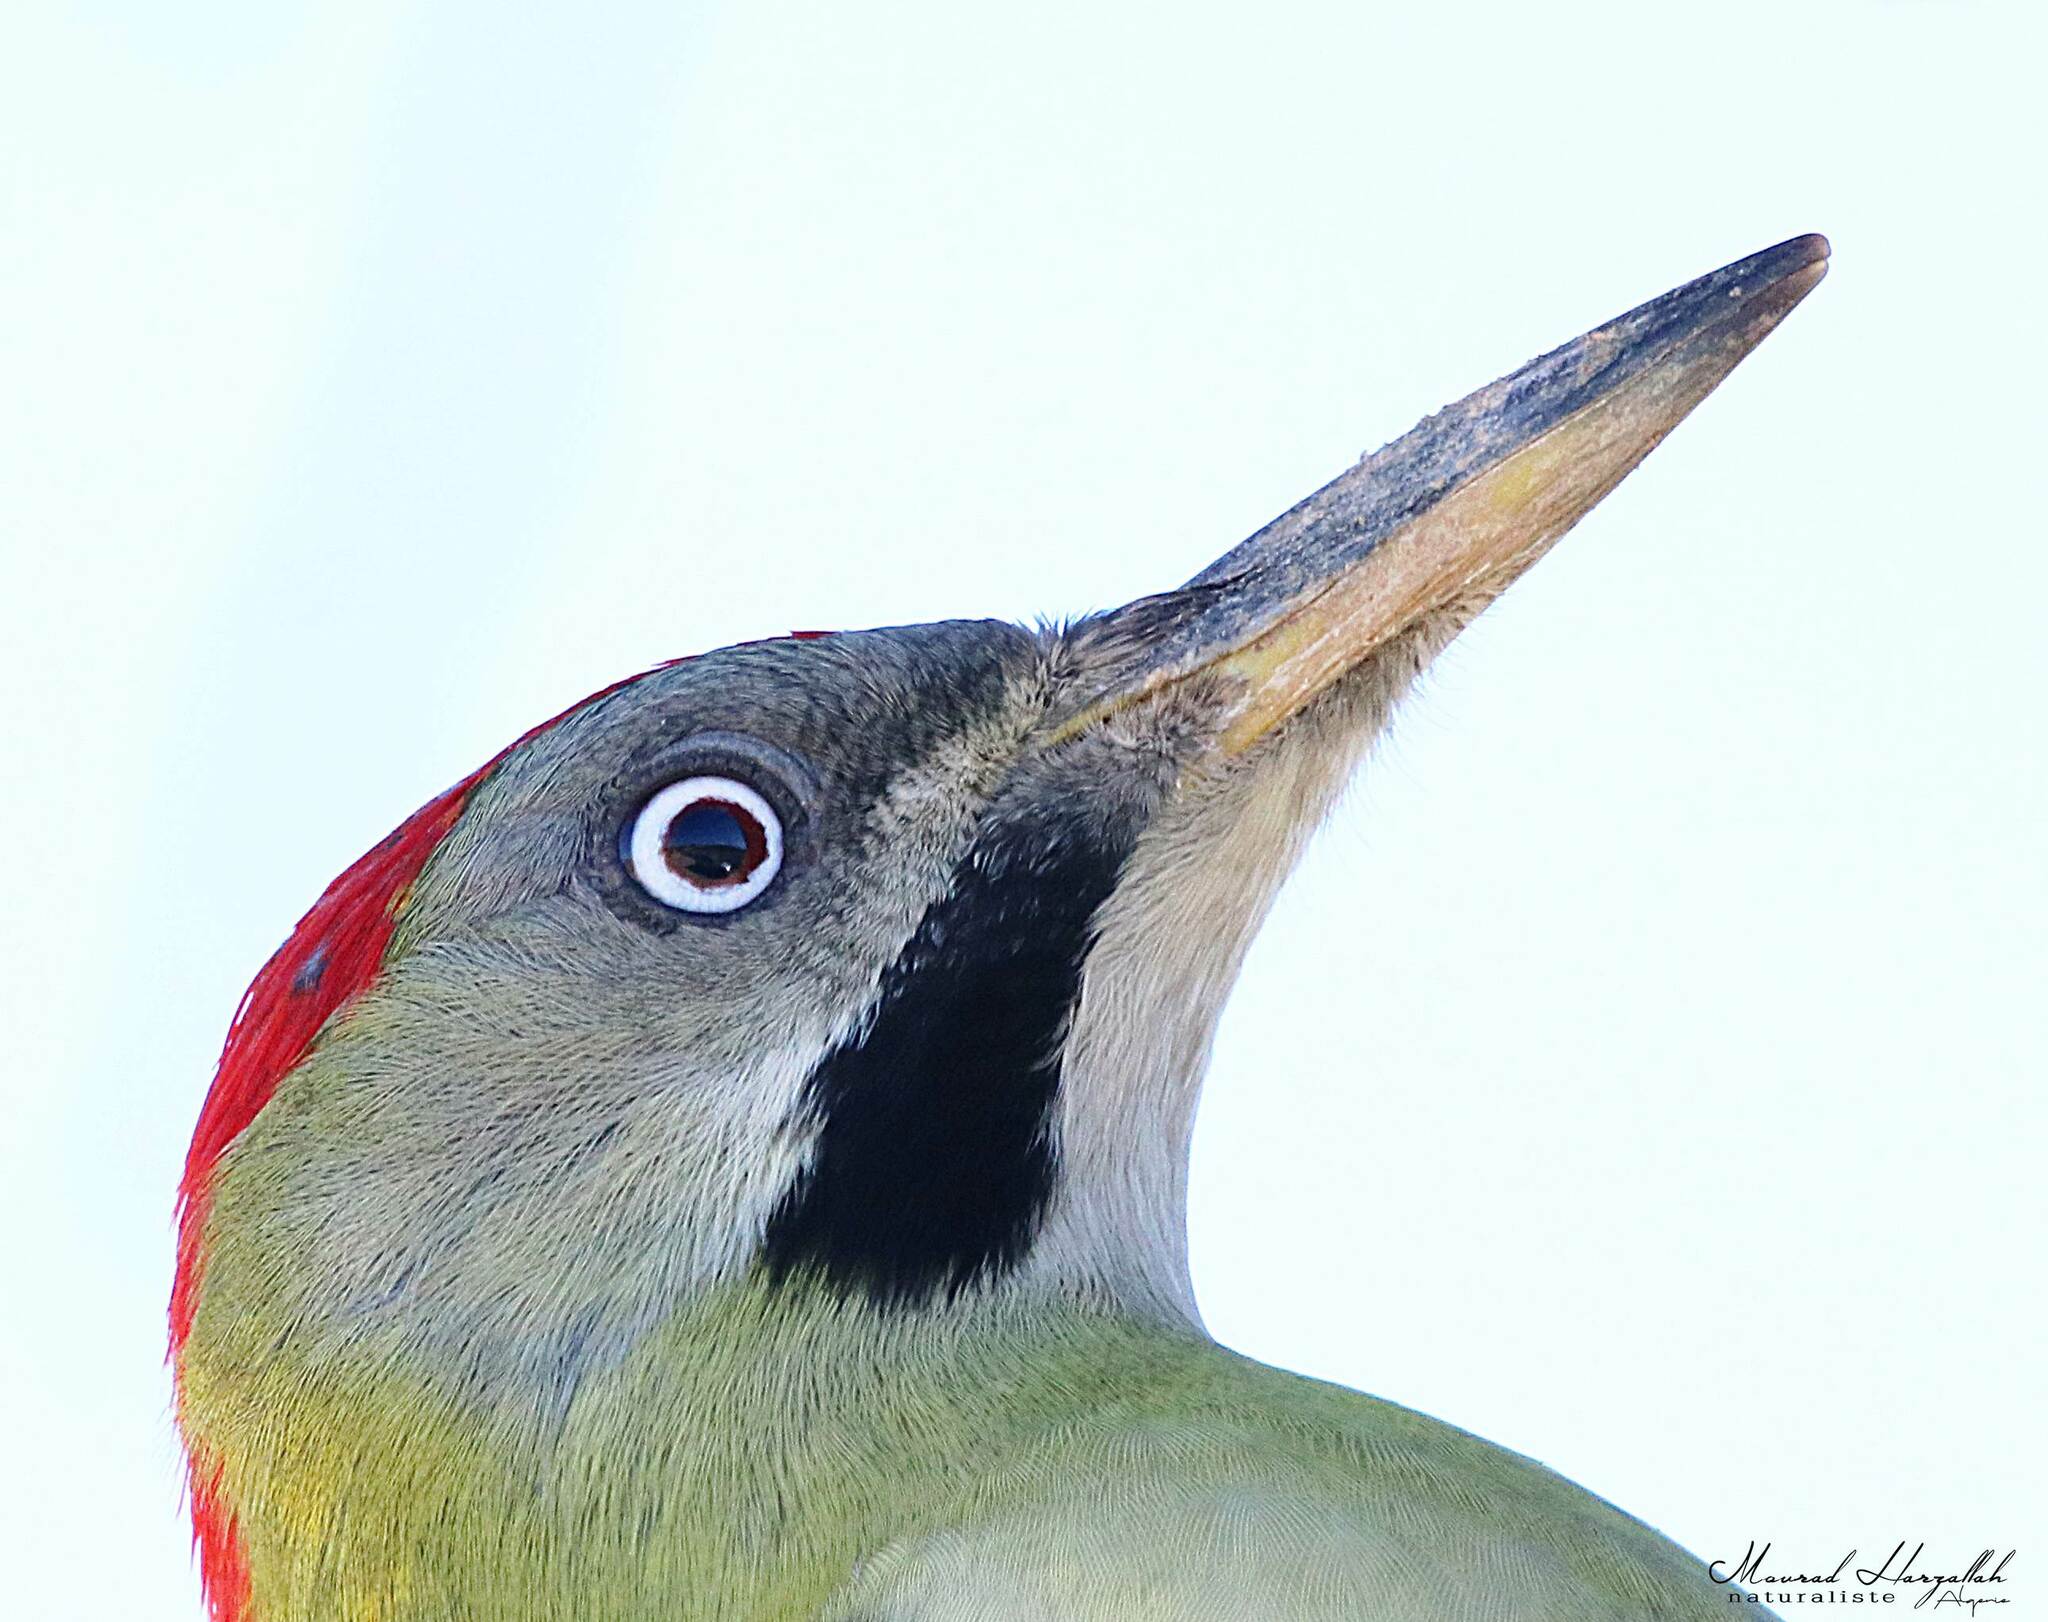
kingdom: Animalia
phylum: Chordata
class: Aves
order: Piciformes
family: Picidae
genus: Picus
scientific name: Picus vaillantii
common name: Levaillant's woodpecker
